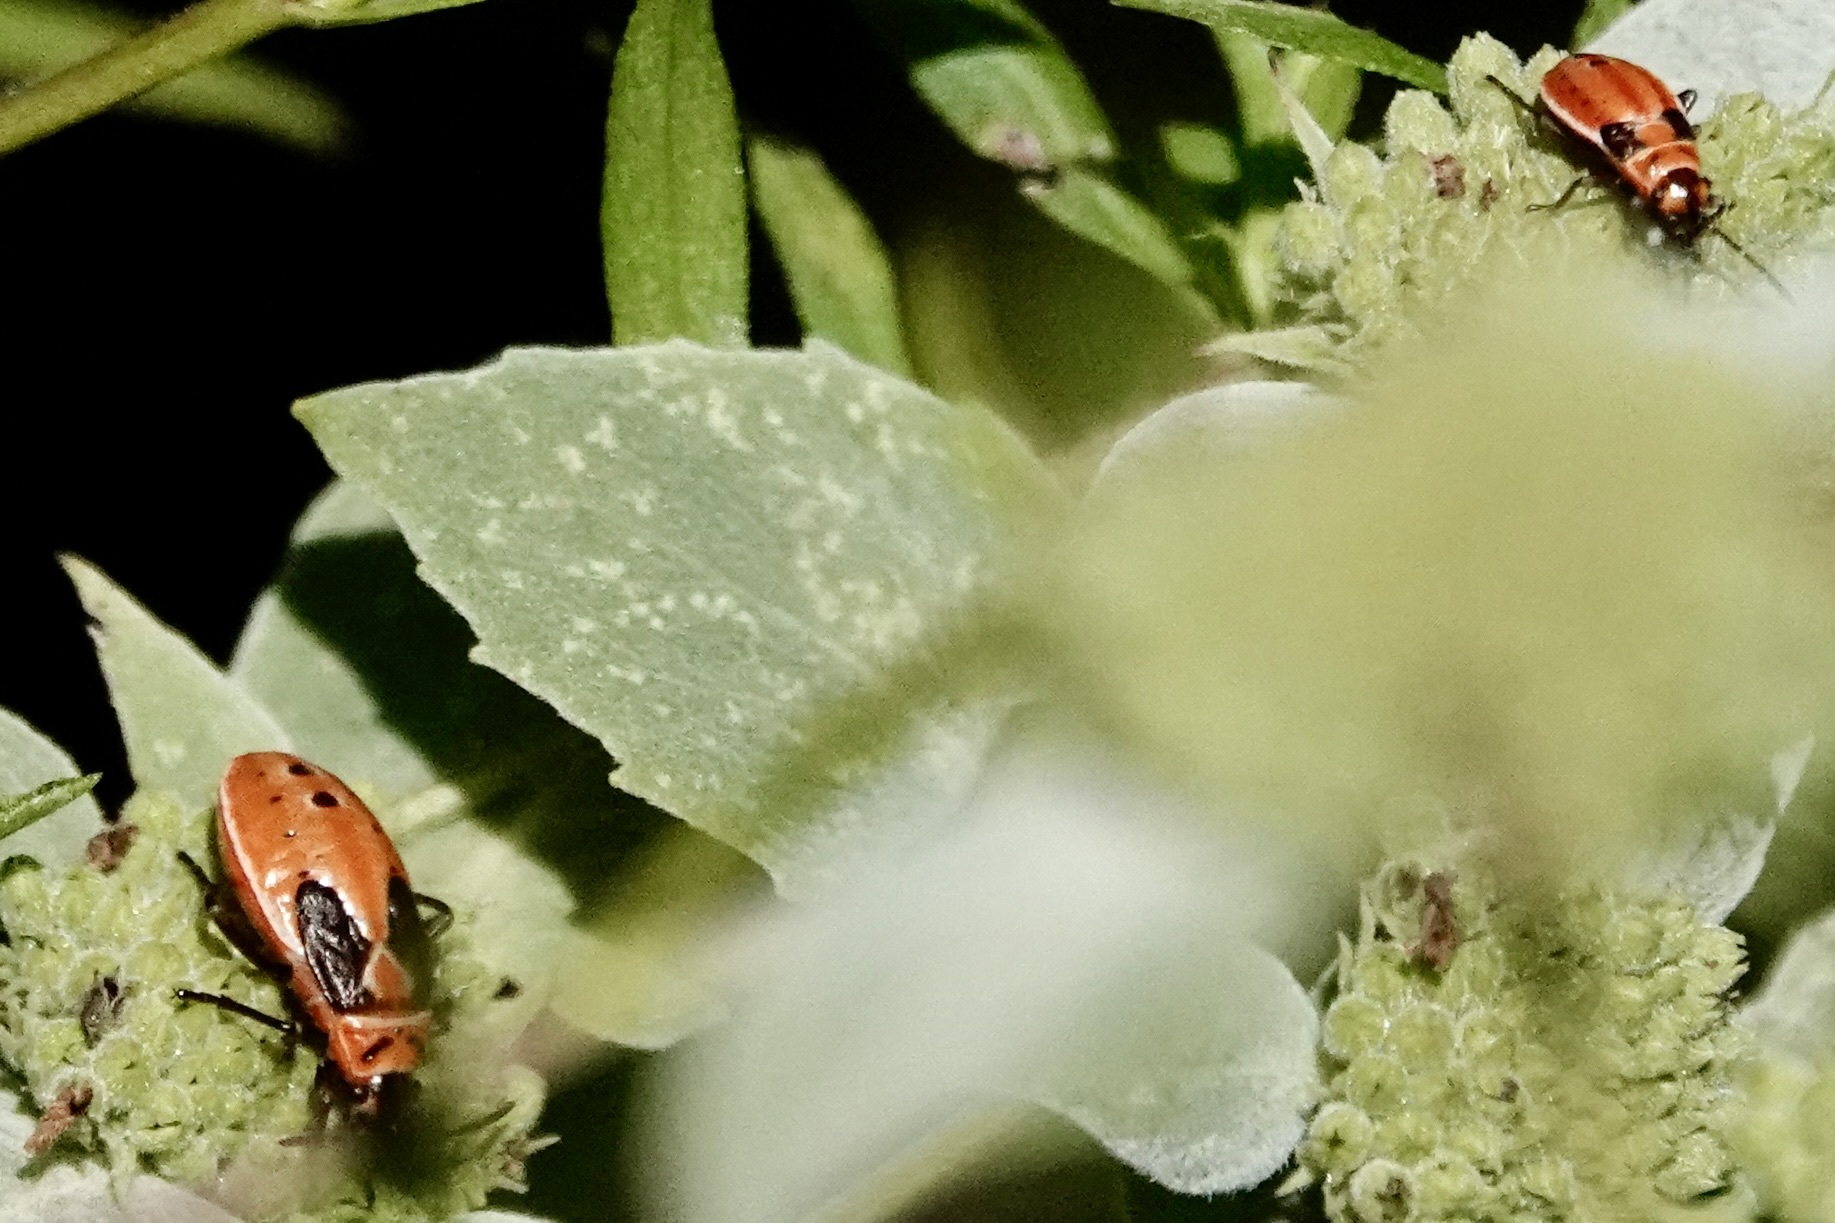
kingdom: Animalia
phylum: Arthropoda
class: Insecta
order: Hemiptera
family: Lygaeidae
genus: Lygaeus
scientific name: Lygaeus kalmii
